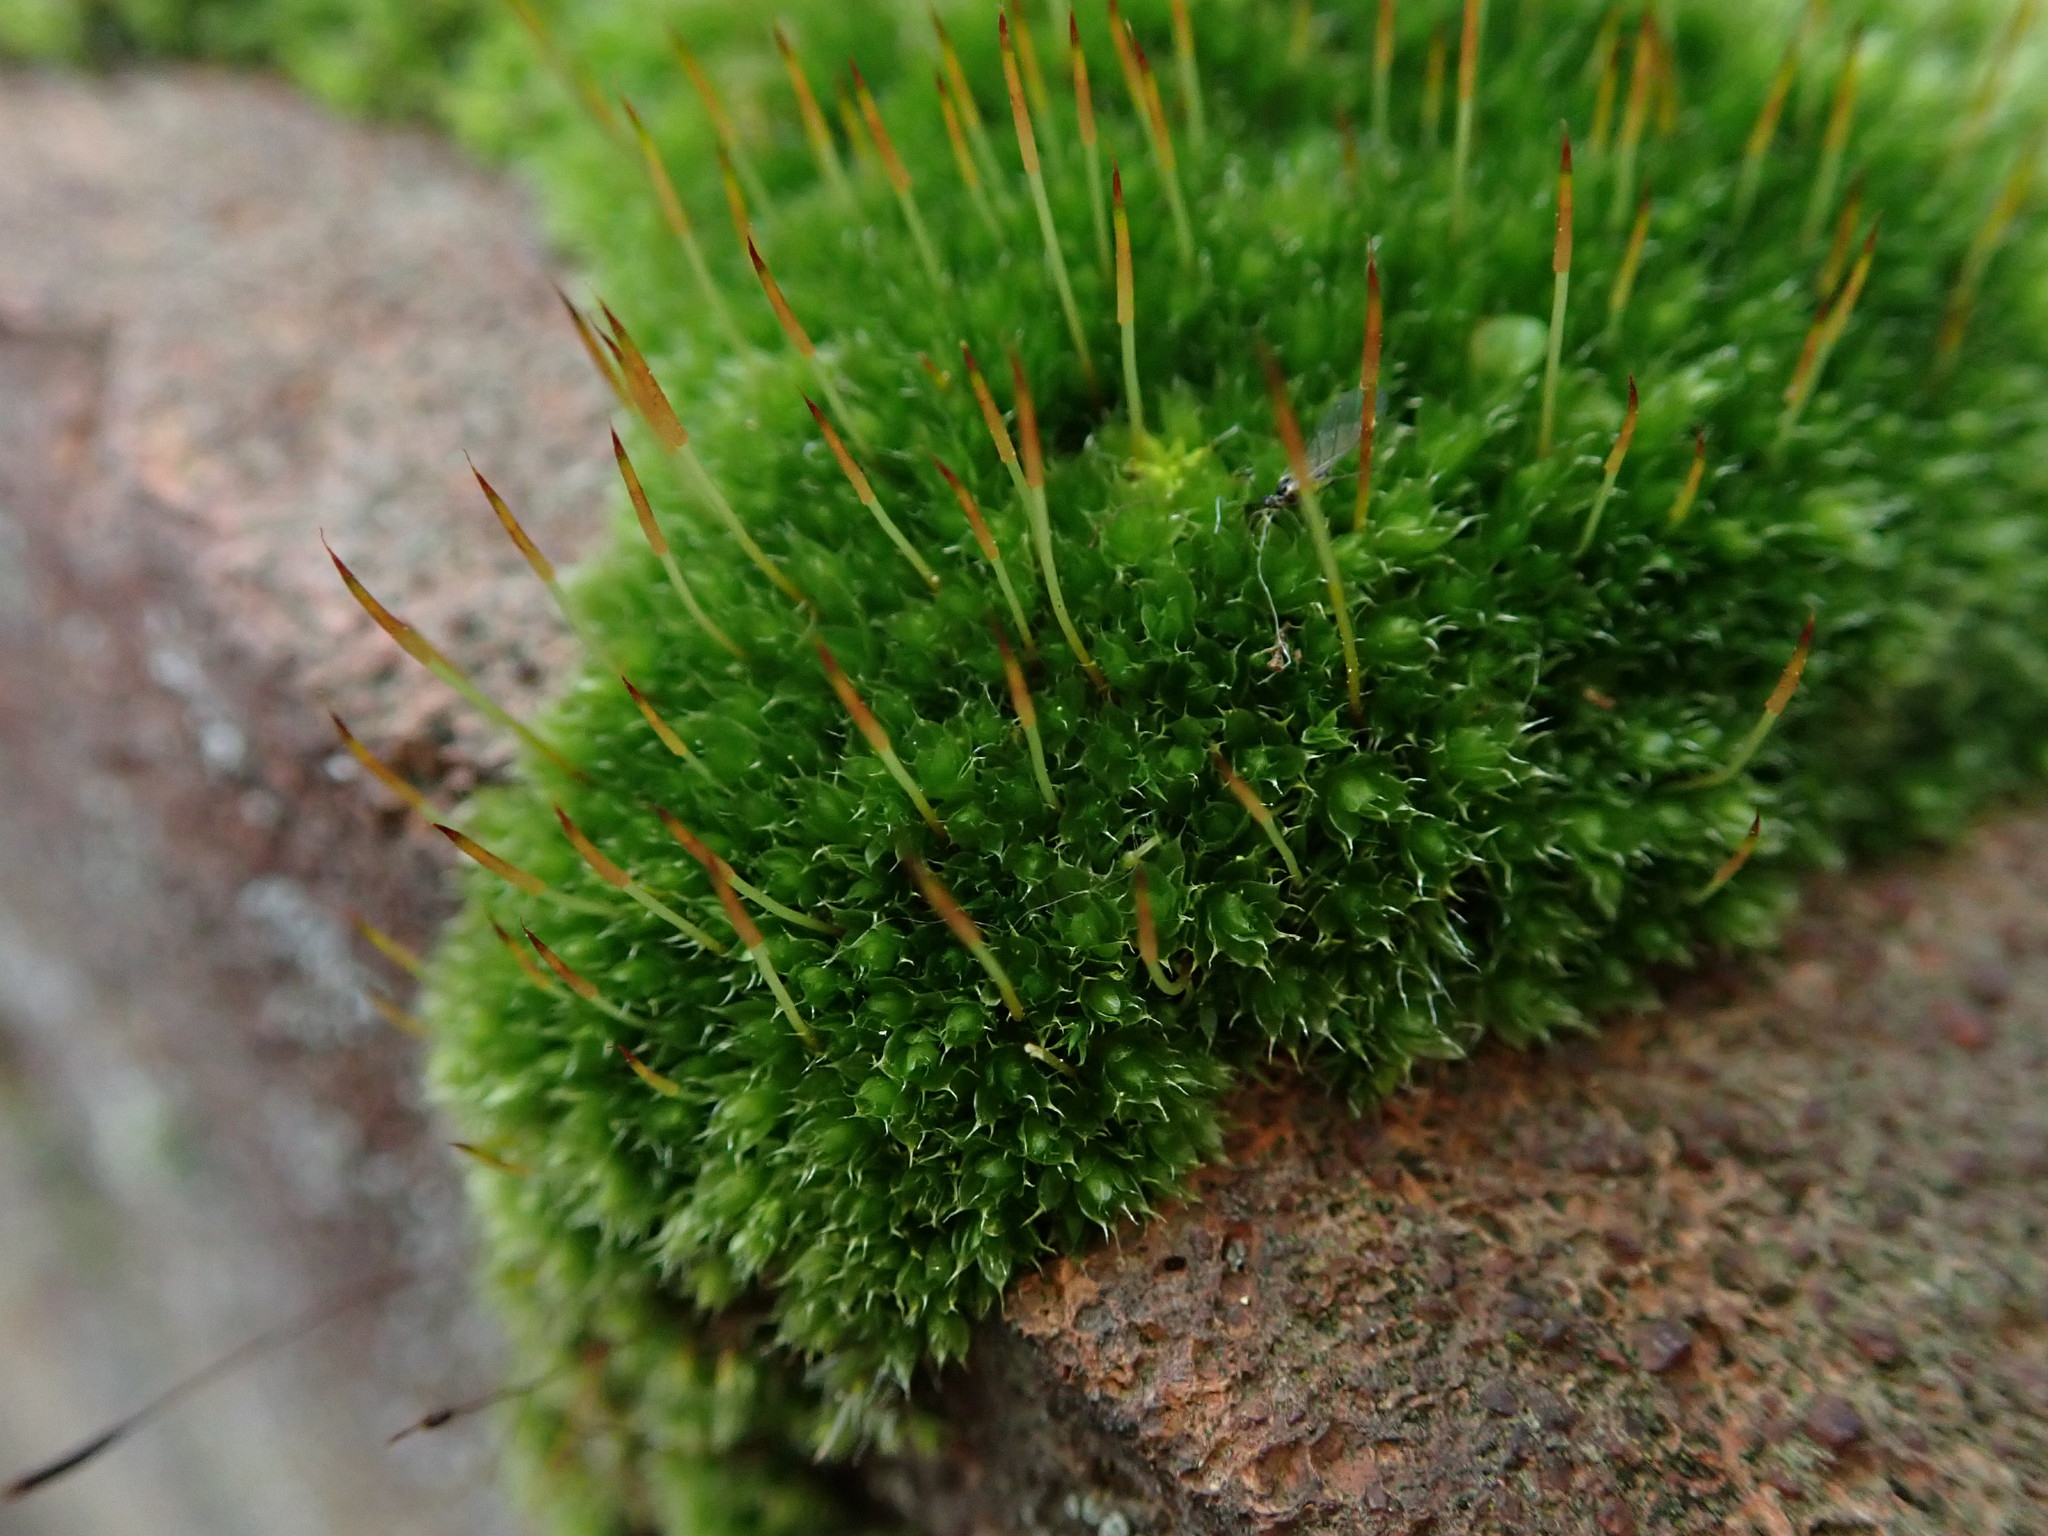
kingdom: Plantae
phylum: Bryophyta
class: Bryopsida
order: Bryales
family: Bryaceae
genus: Rosulabryum
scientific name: Rosulabryum capillare
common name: Capillary thread-moss
